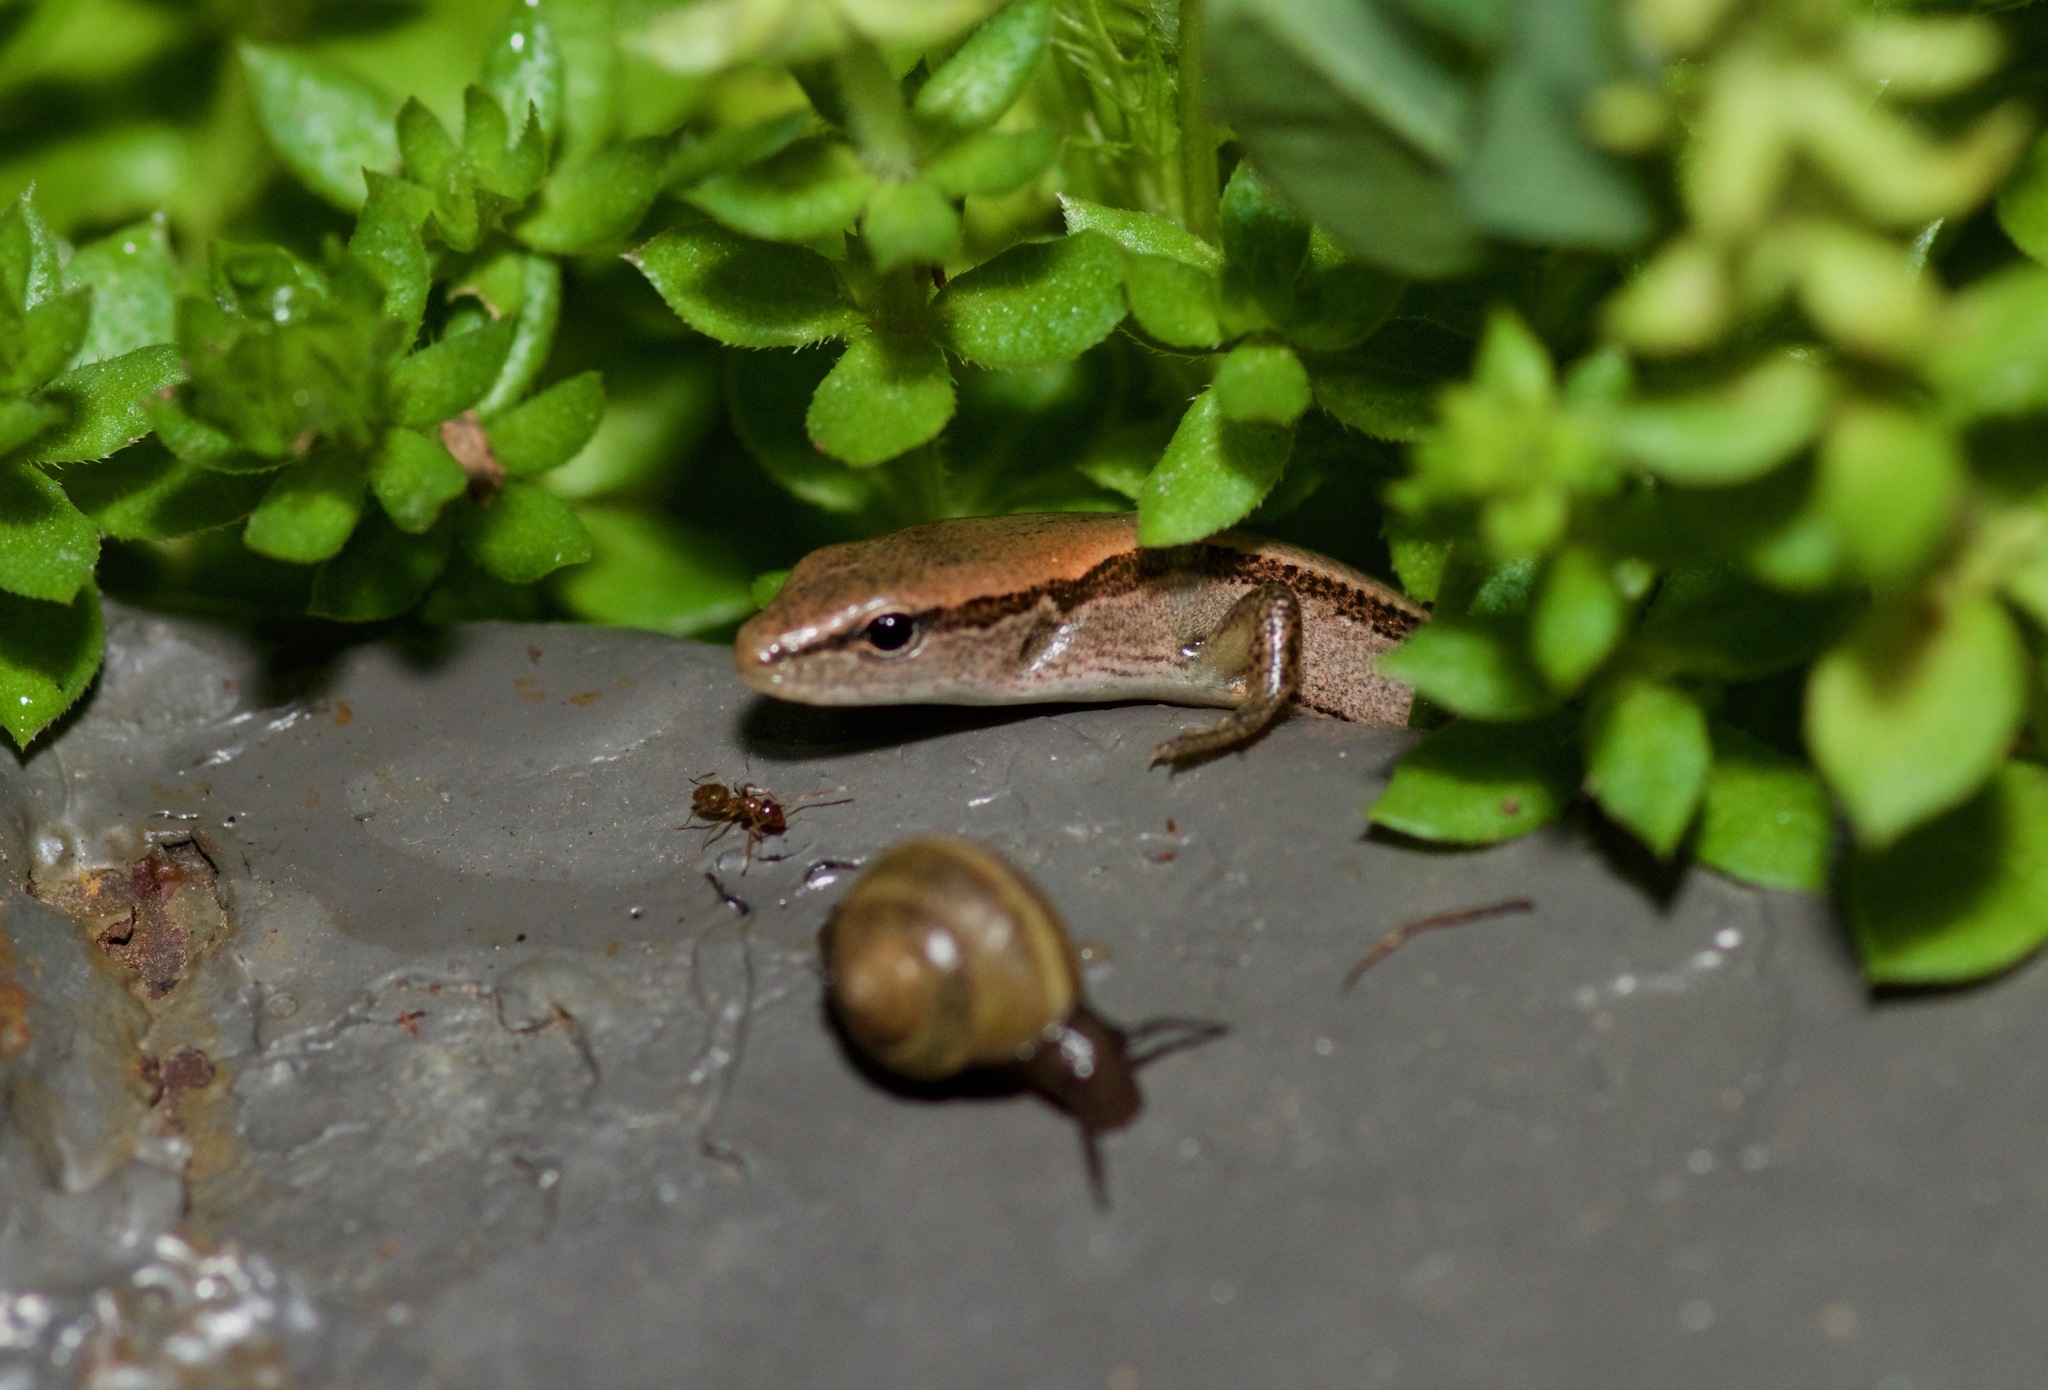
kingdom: Animalia
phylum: Chordata
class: Squamata
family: Scincidae
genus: Scincella
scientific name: Scincella lateralis
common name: Ground skink
